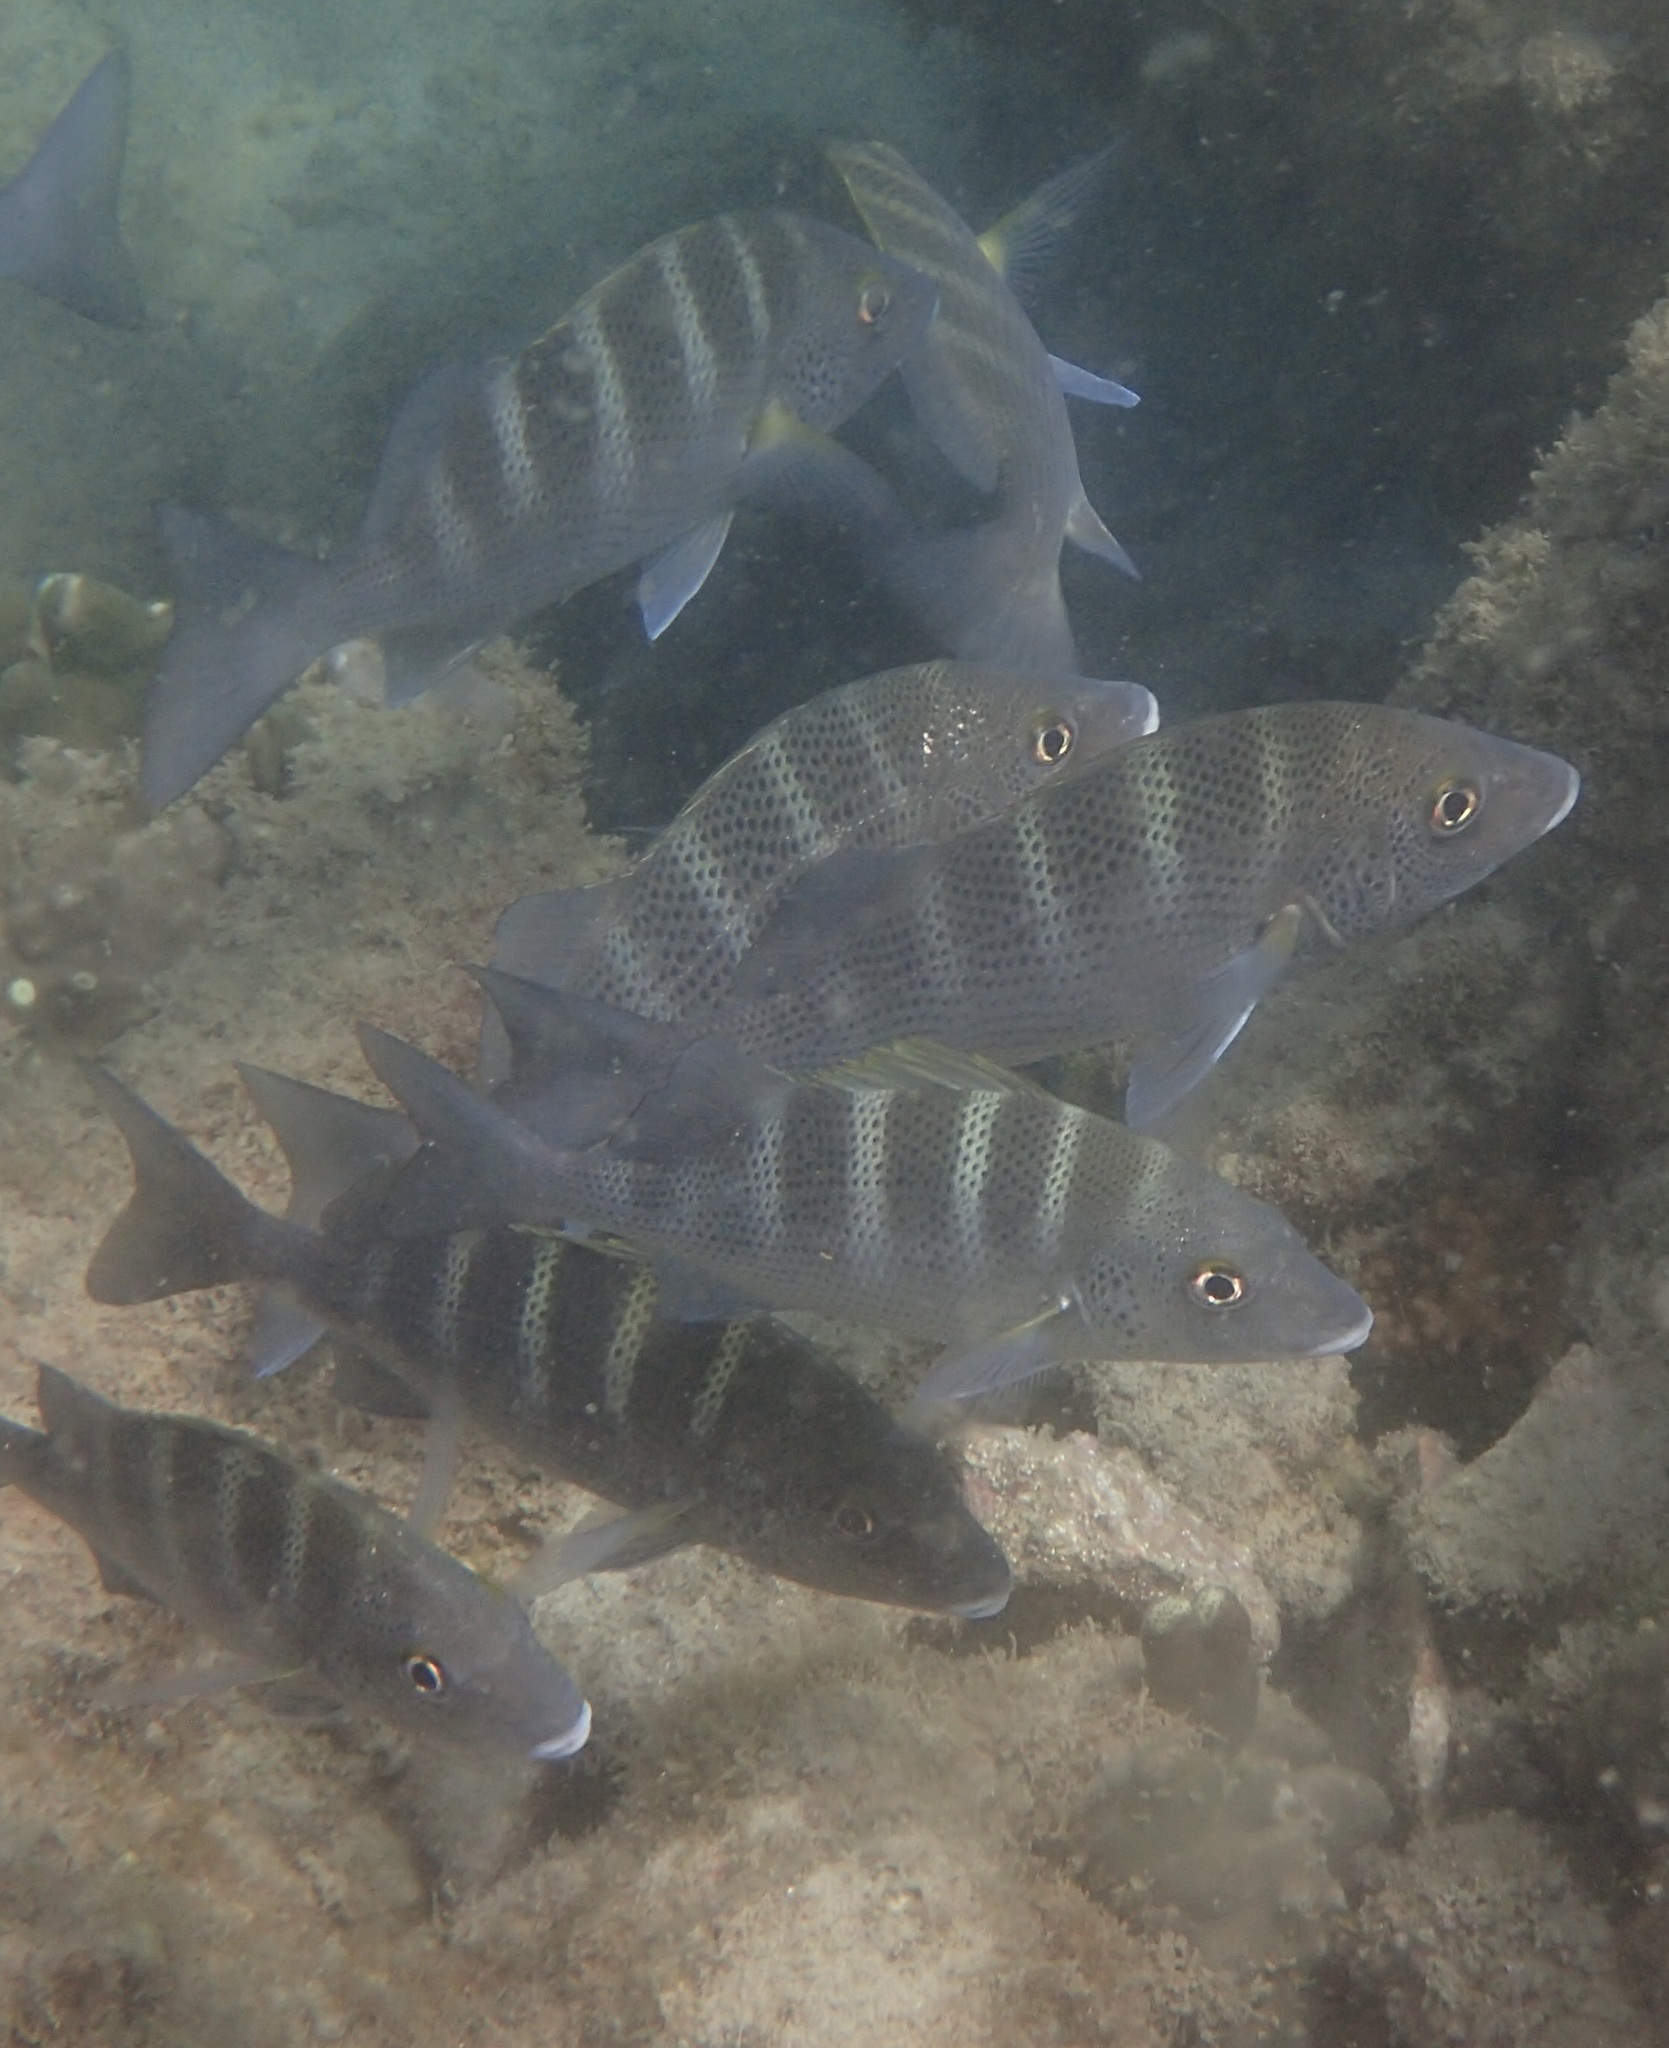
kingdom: Animalia
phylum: Chordata
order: Perciformes
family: Haemulidae
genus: Haemulon
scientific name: Haemulon sexfasciatum
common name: Graybar grunt
